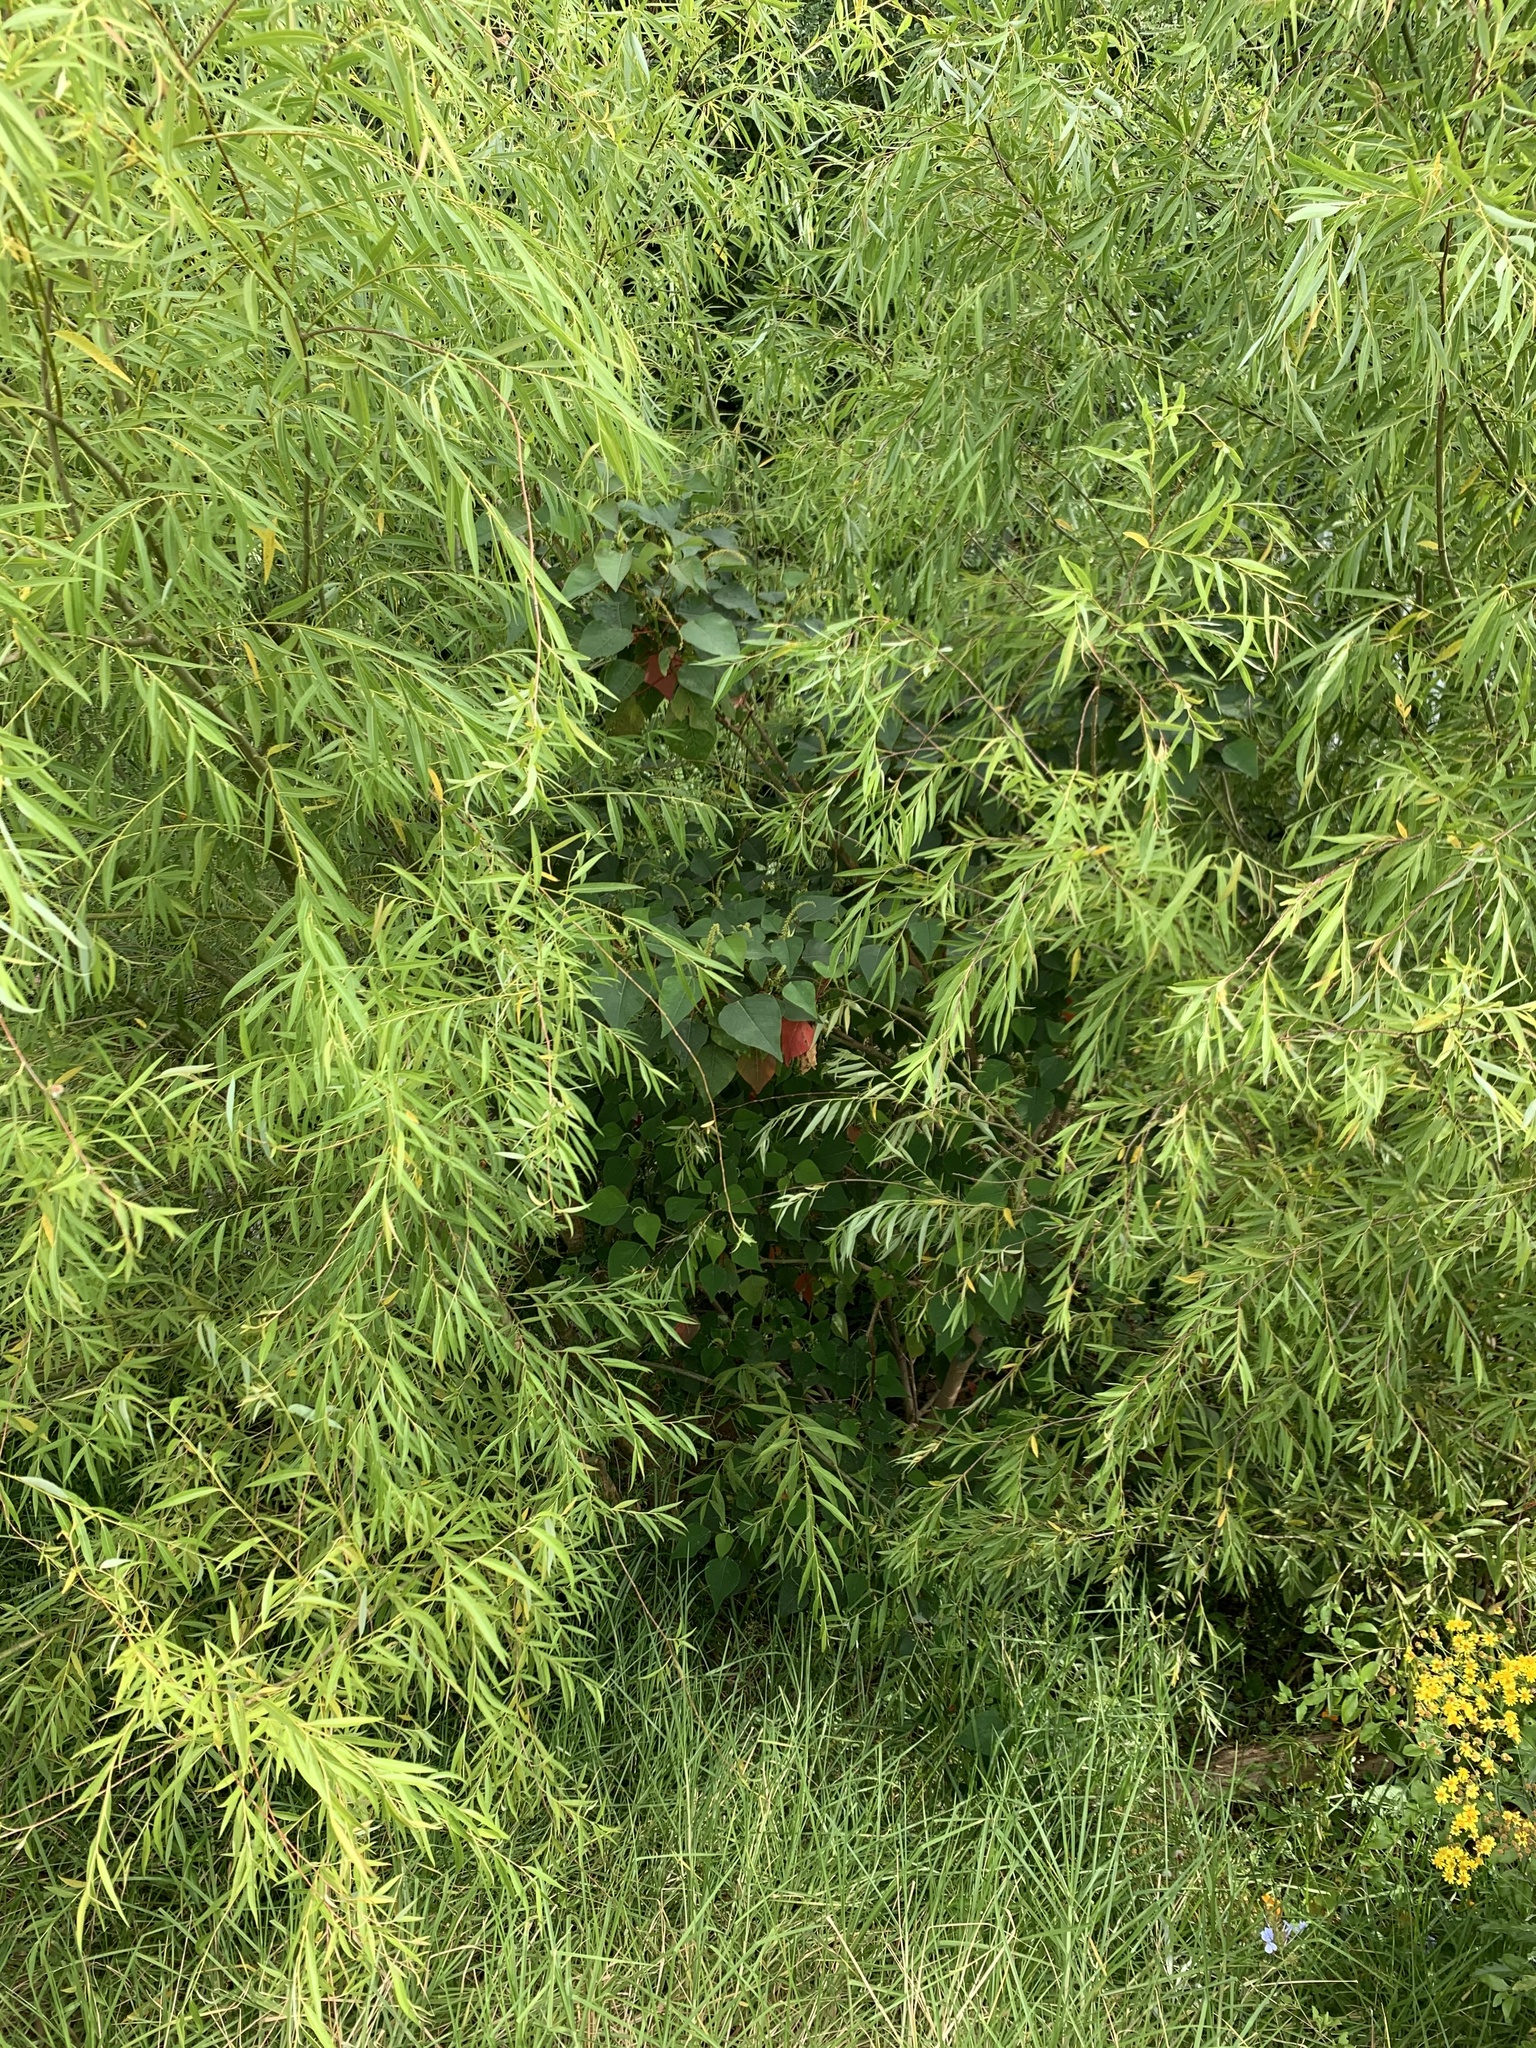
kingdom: Plantae
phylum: Tracheophyta
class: Magnoliopsida
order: Malpighiales
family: Euphorbiaceae
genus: Homalanthus
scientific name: Homalanthus populifolius
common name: Queensland poplar
